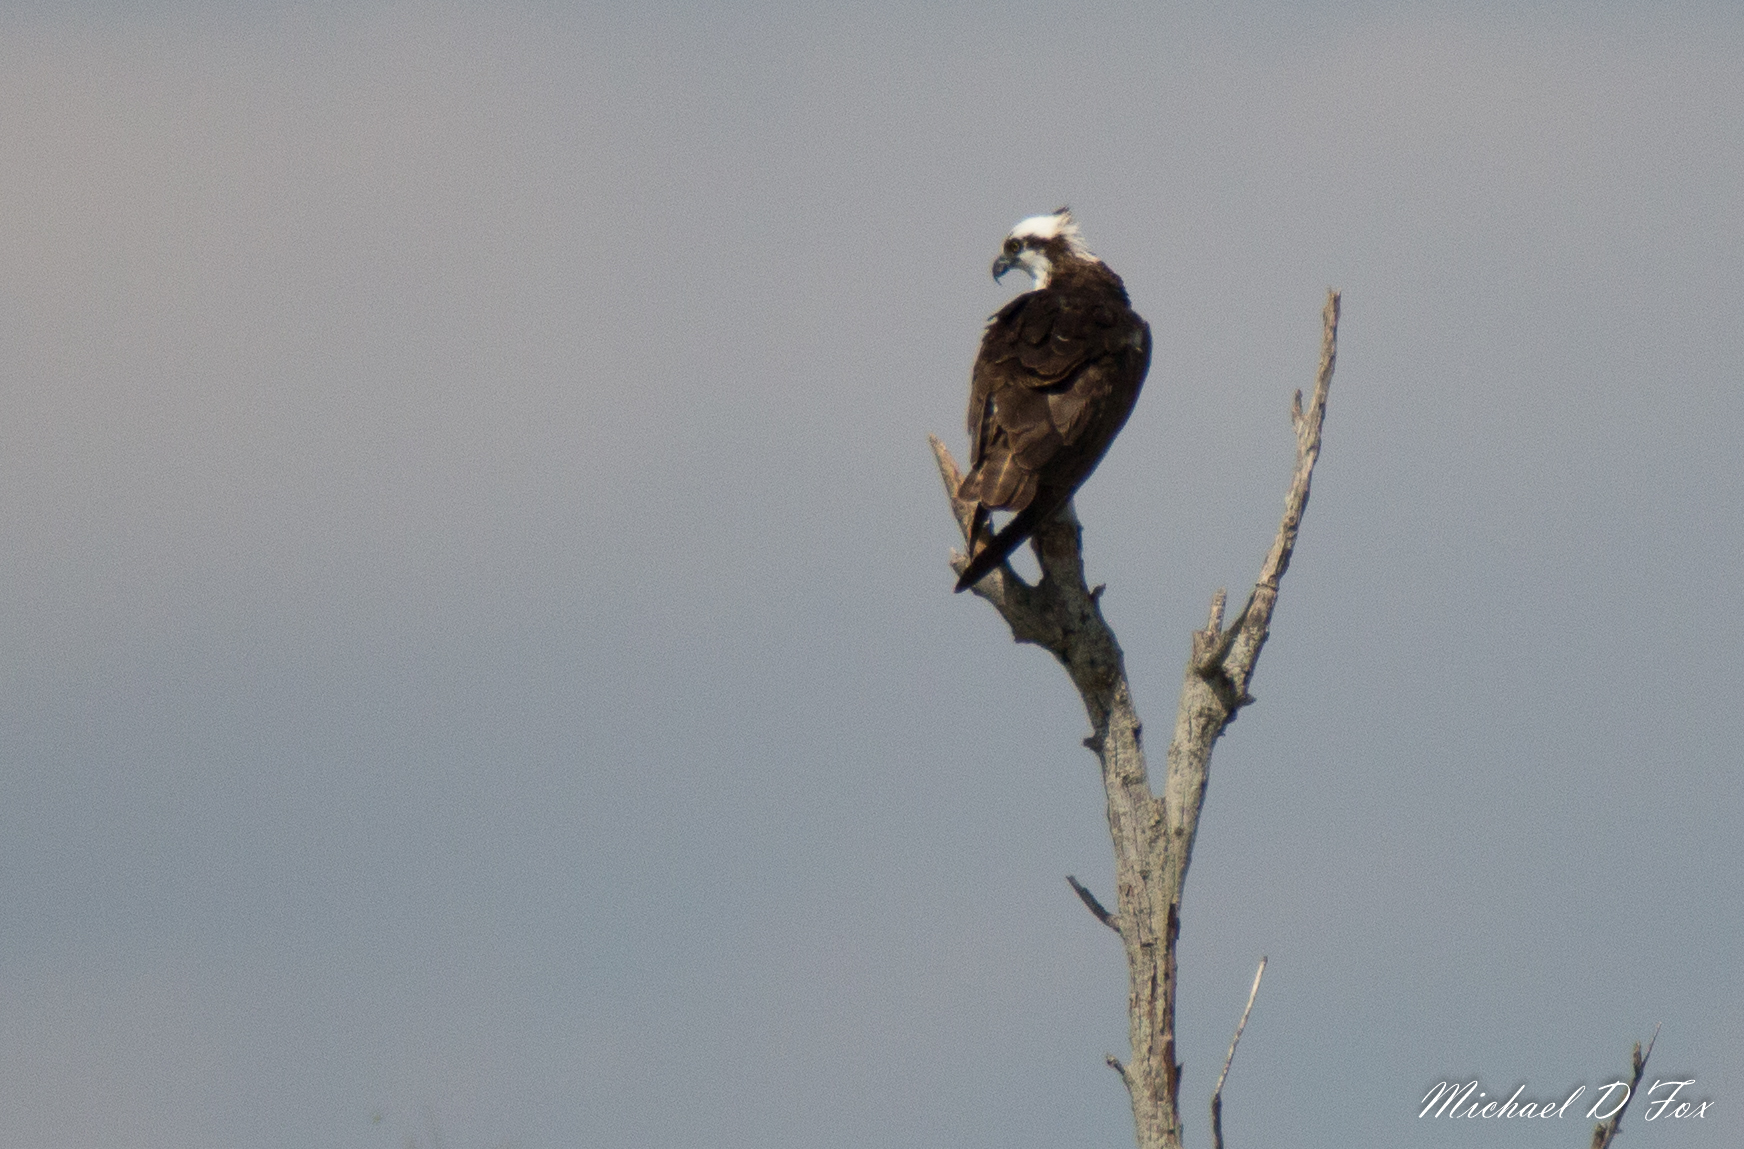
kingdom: Animalia
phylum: Chordata
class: Aves
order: Accipitriformes
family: Pandionidae
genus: Pandion
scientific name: Pandion haliaetus
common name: Osprey
